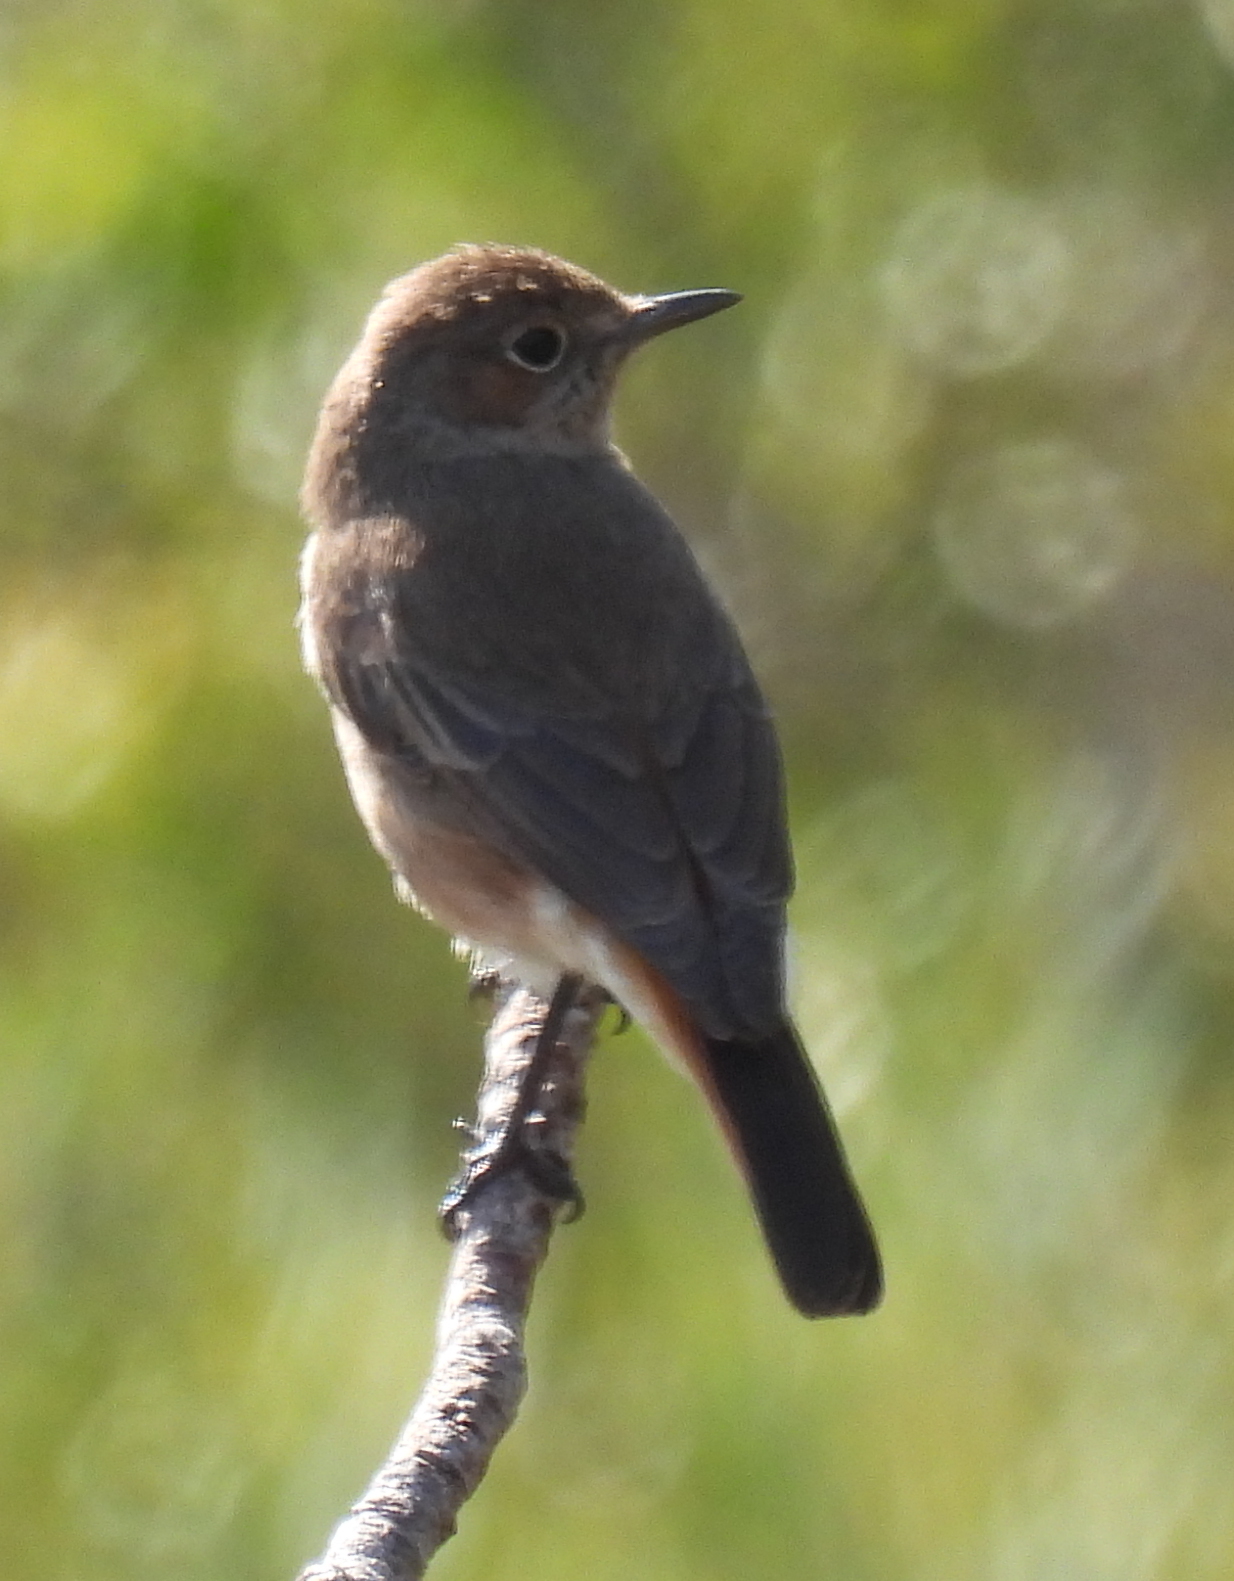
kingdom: Animalia
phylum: Chordata
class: Aves
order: Passeriformes
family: Muscicapidae
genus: Oenanthe
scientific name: Oenanthe familiaris
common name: Familiar chat
